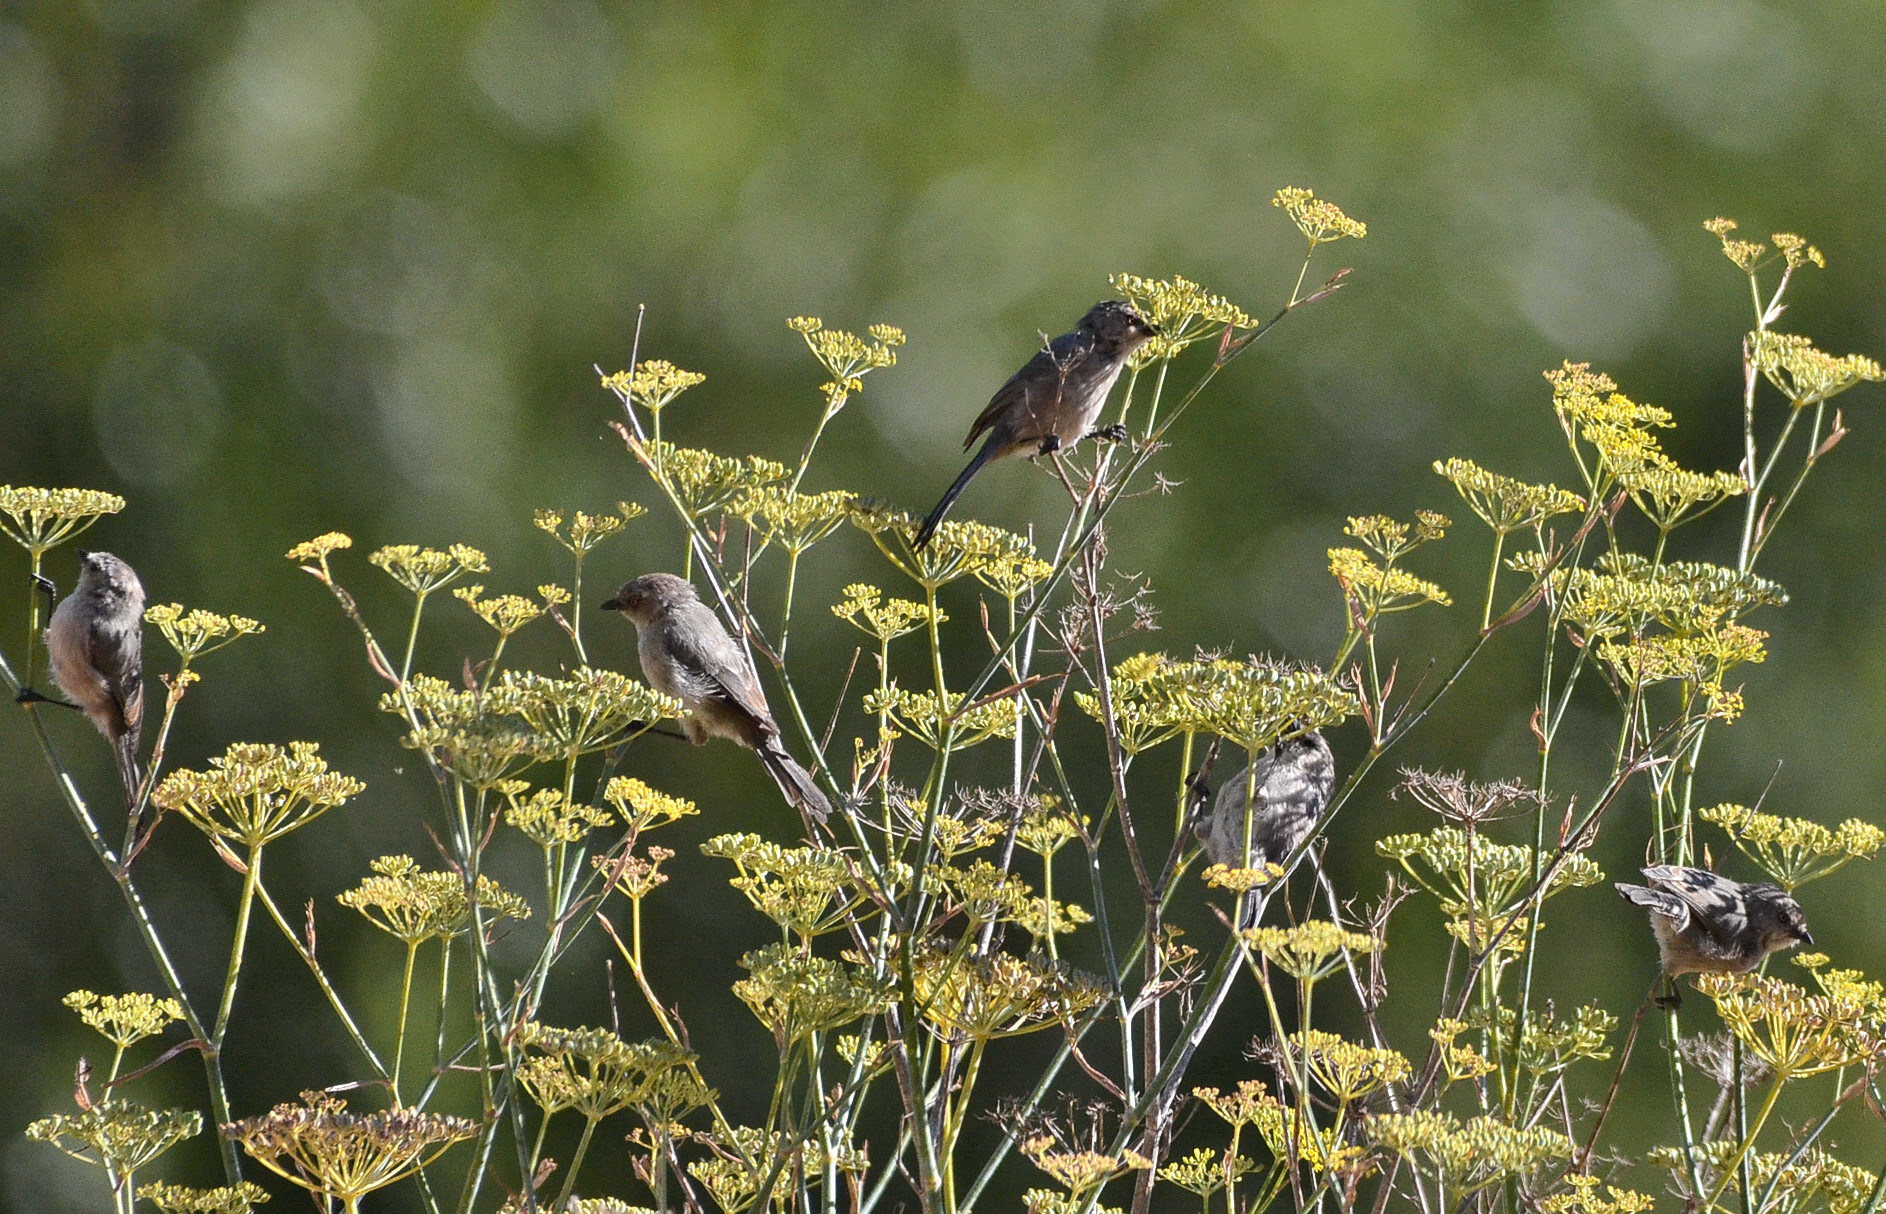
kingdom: Animalia
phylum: Chordata
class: Aves
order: Passeriformes
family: Aegithalidae
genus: Psaltriparus
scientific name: Psaltriparus minimus
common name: American bushtit
